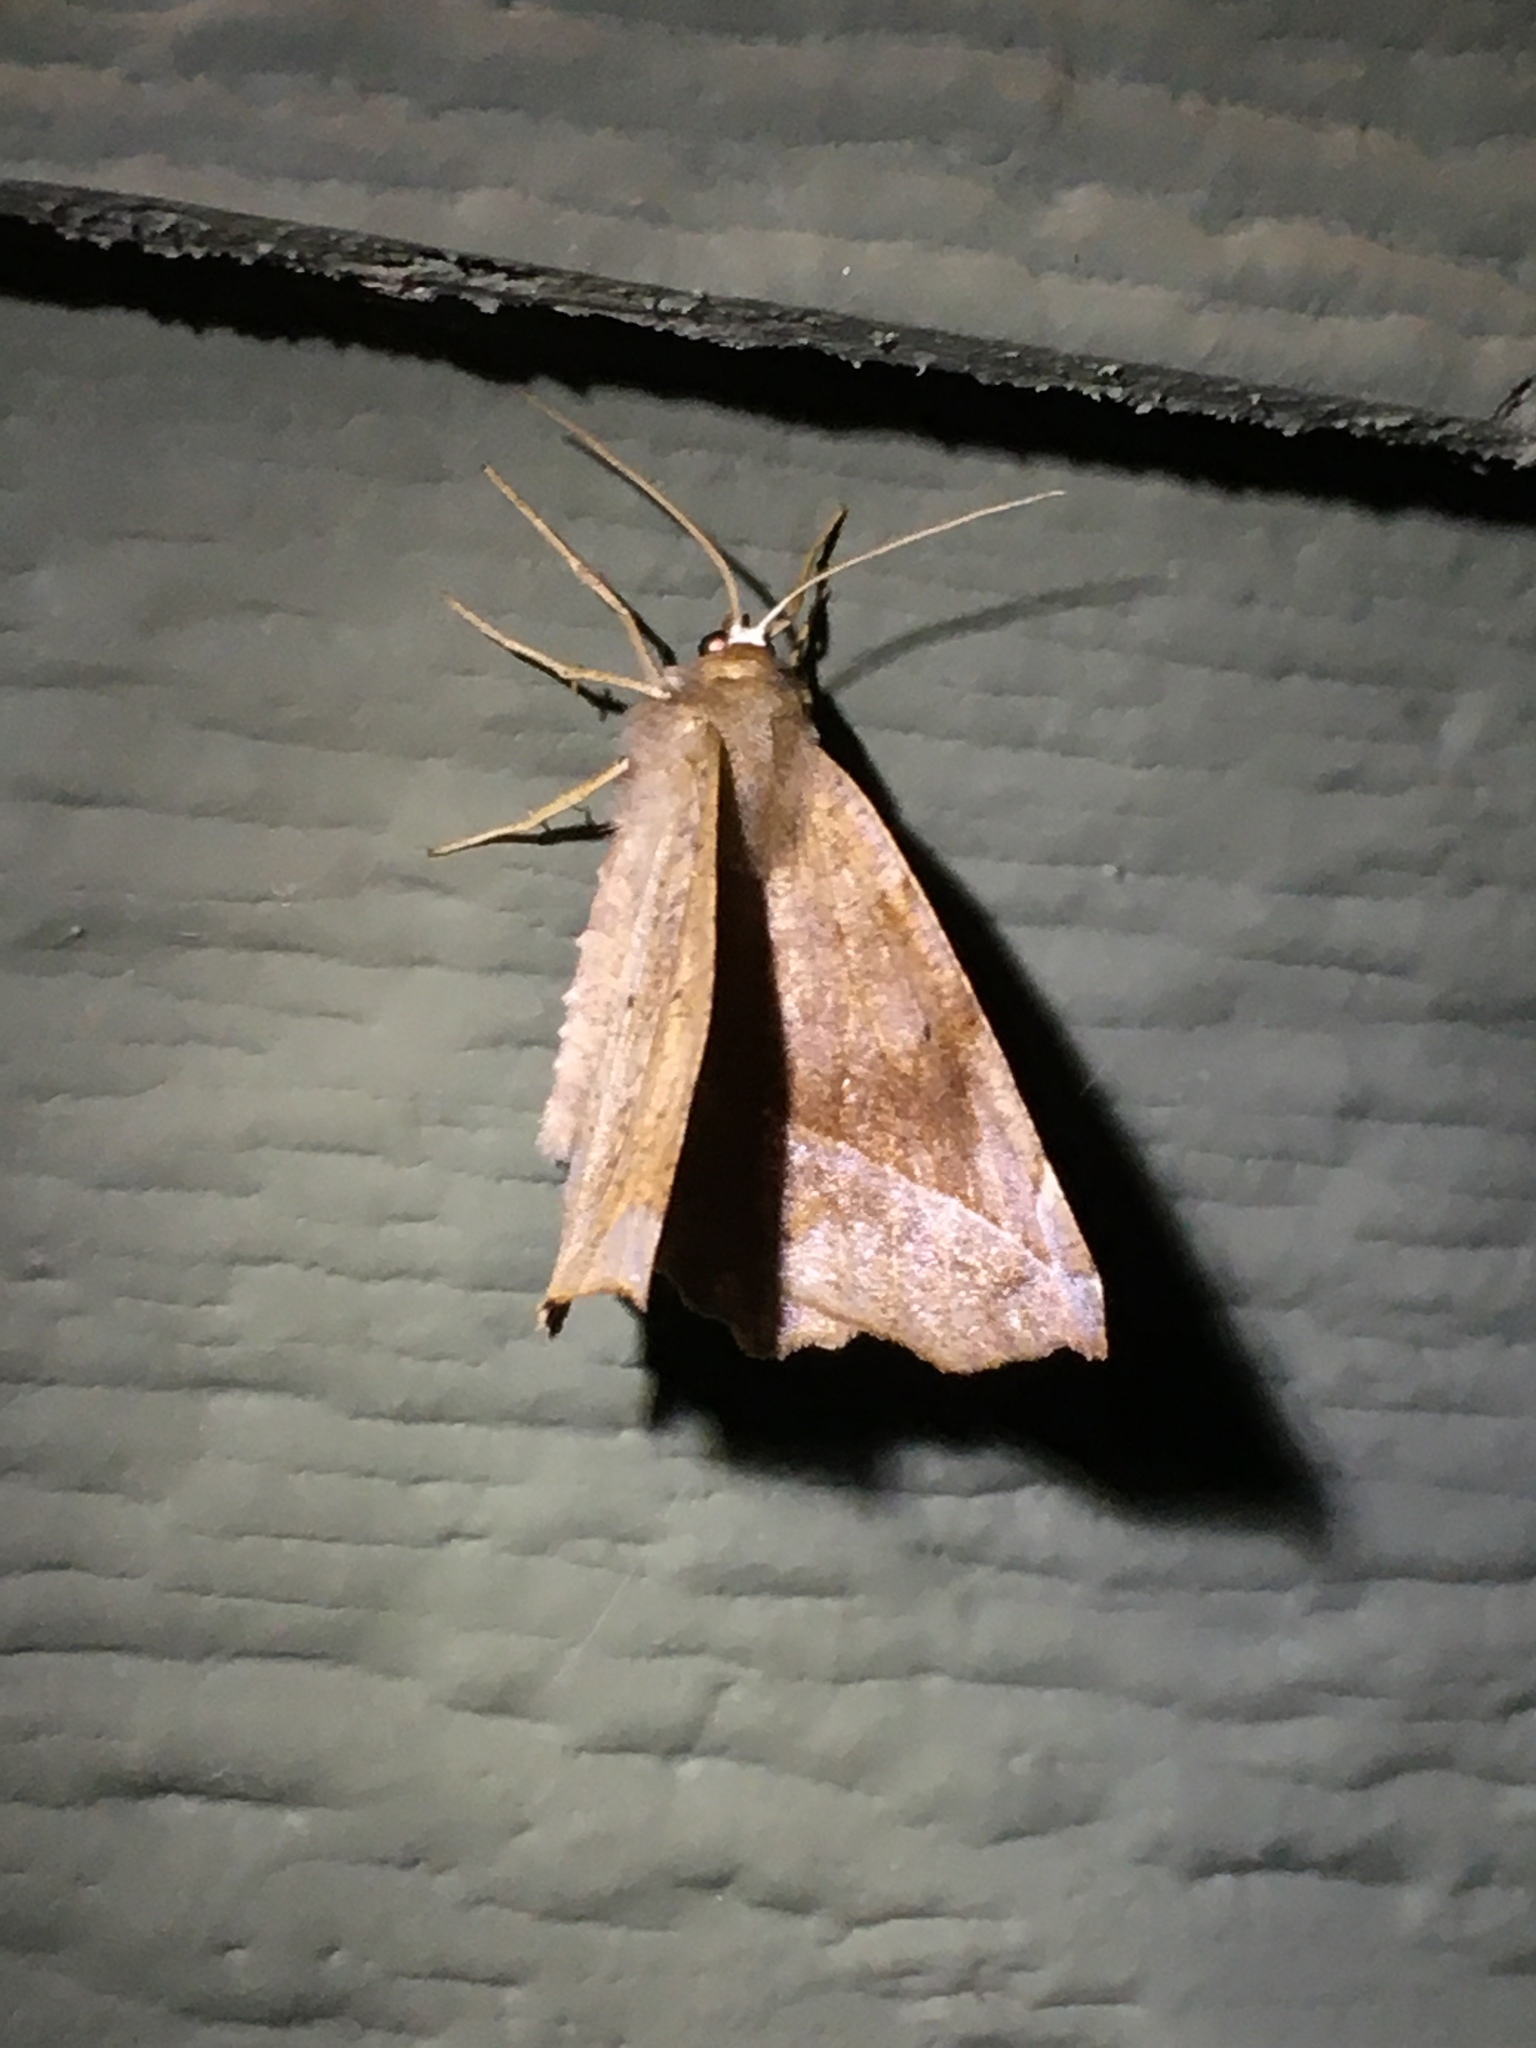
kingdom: Animalia
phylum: Arthropoda
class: Insecta
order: Lepidoptera
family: Geometridae
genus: Eutrapela
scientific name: Eutrapela clemataria
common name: Curved-toothed geometer
